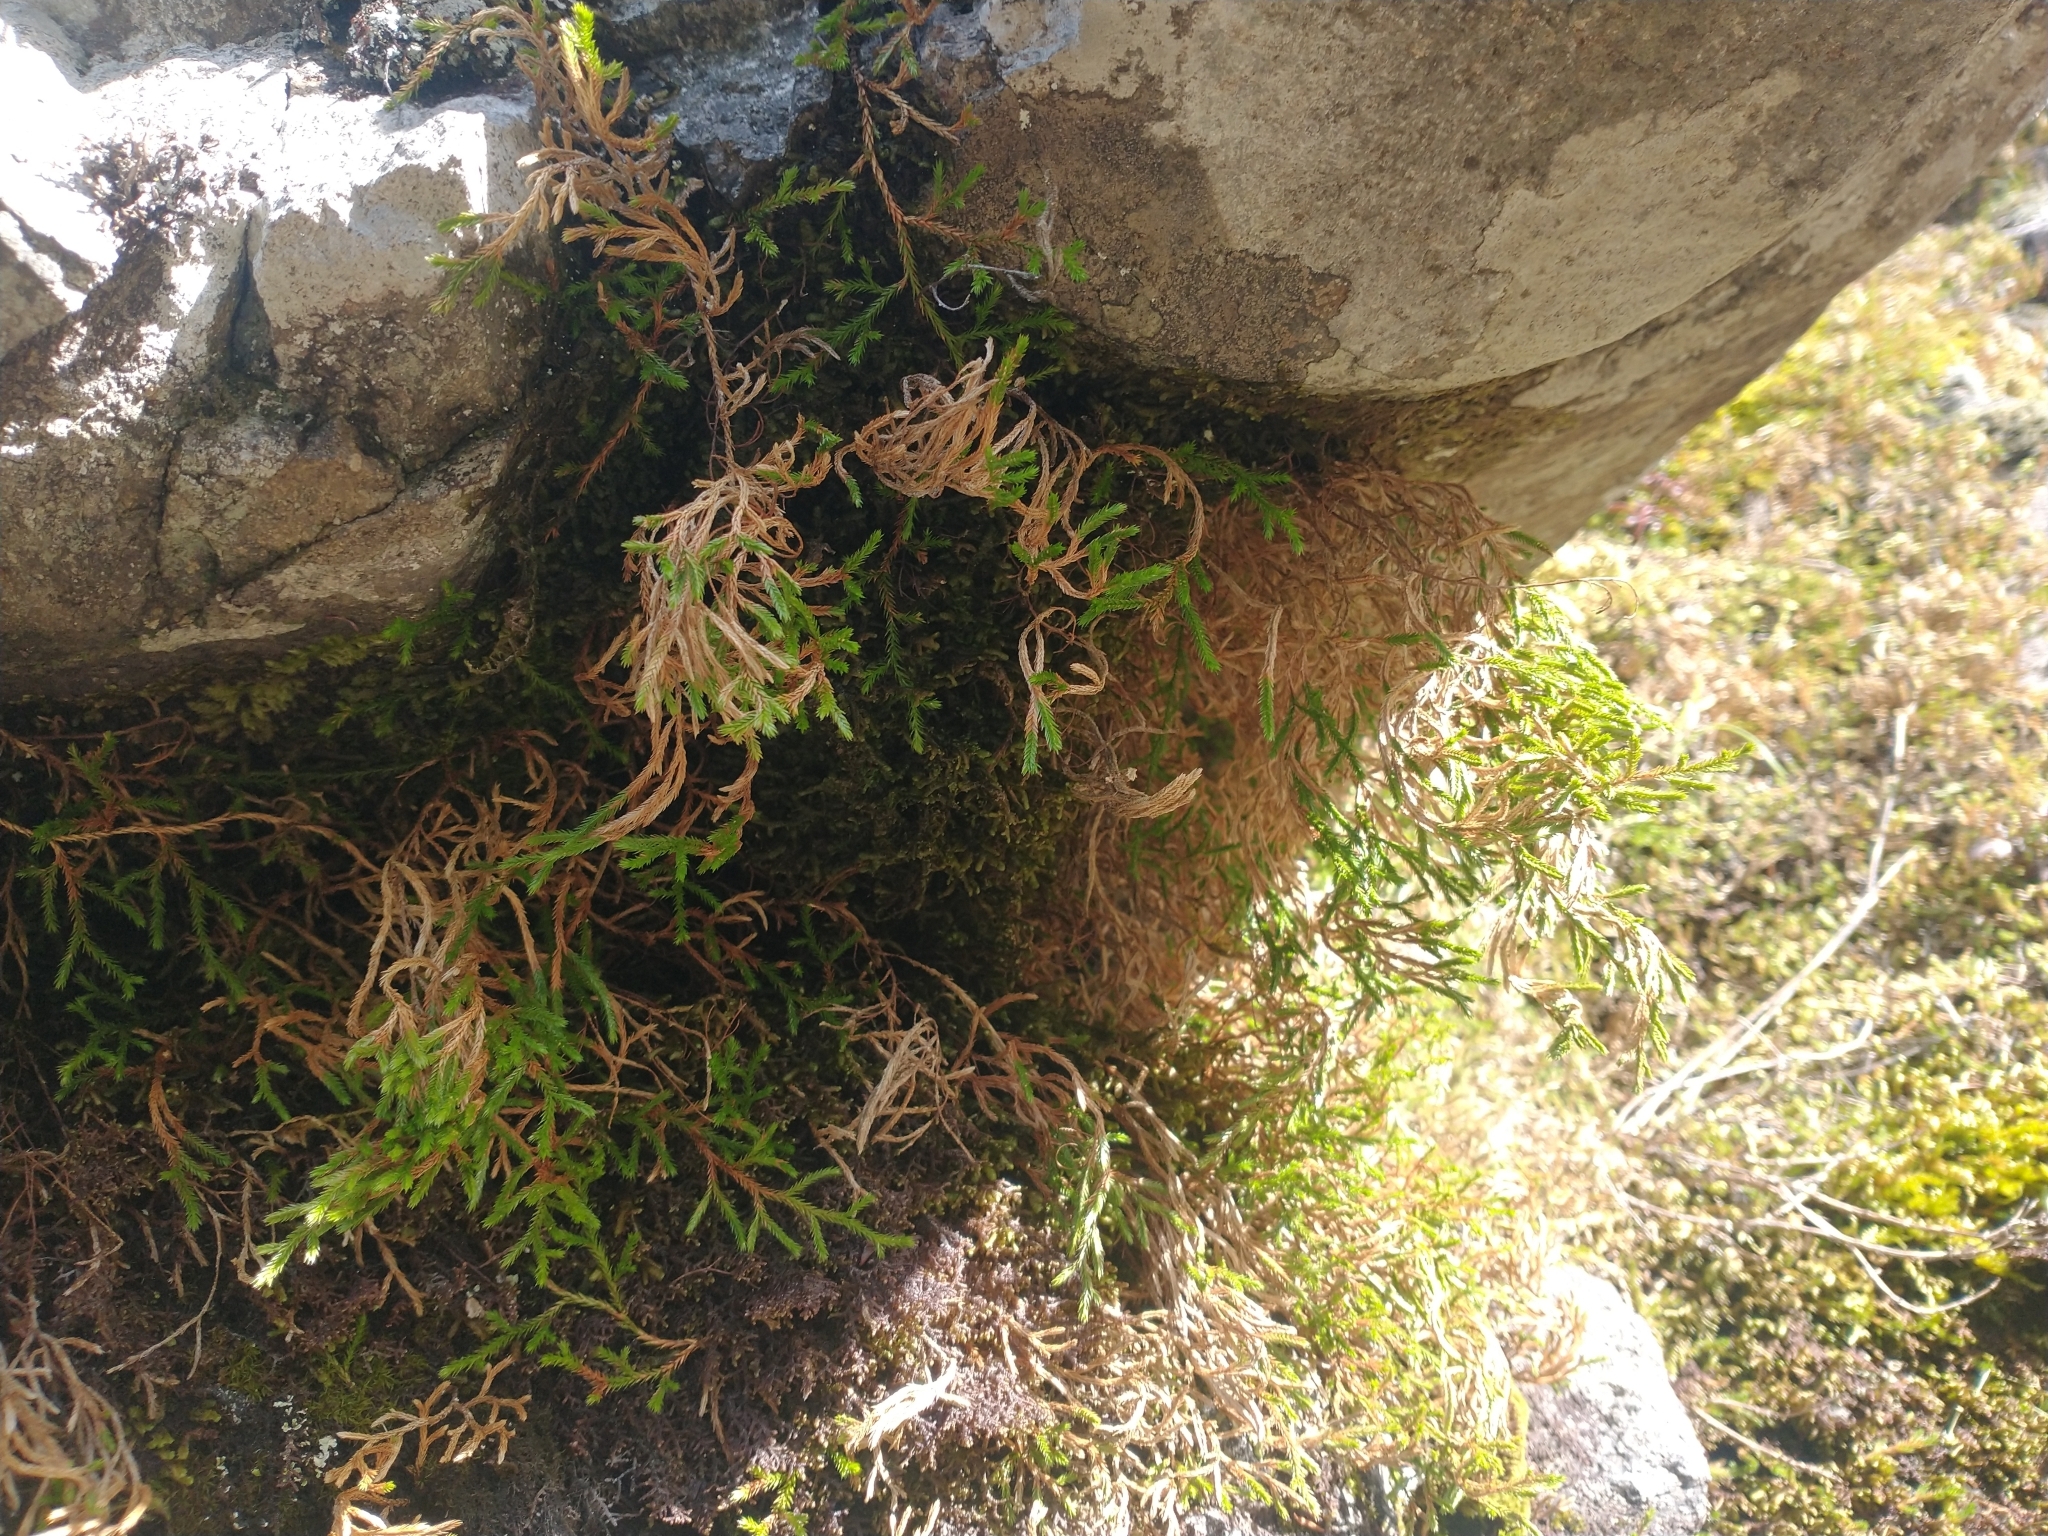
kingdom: Plantae
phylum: Tracheophyta
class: Lycopodiopsida
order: Selaginellales
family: Selaginellaceae
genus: Selaginella
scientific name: Selaginella oregana
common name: Oregon selaginella
